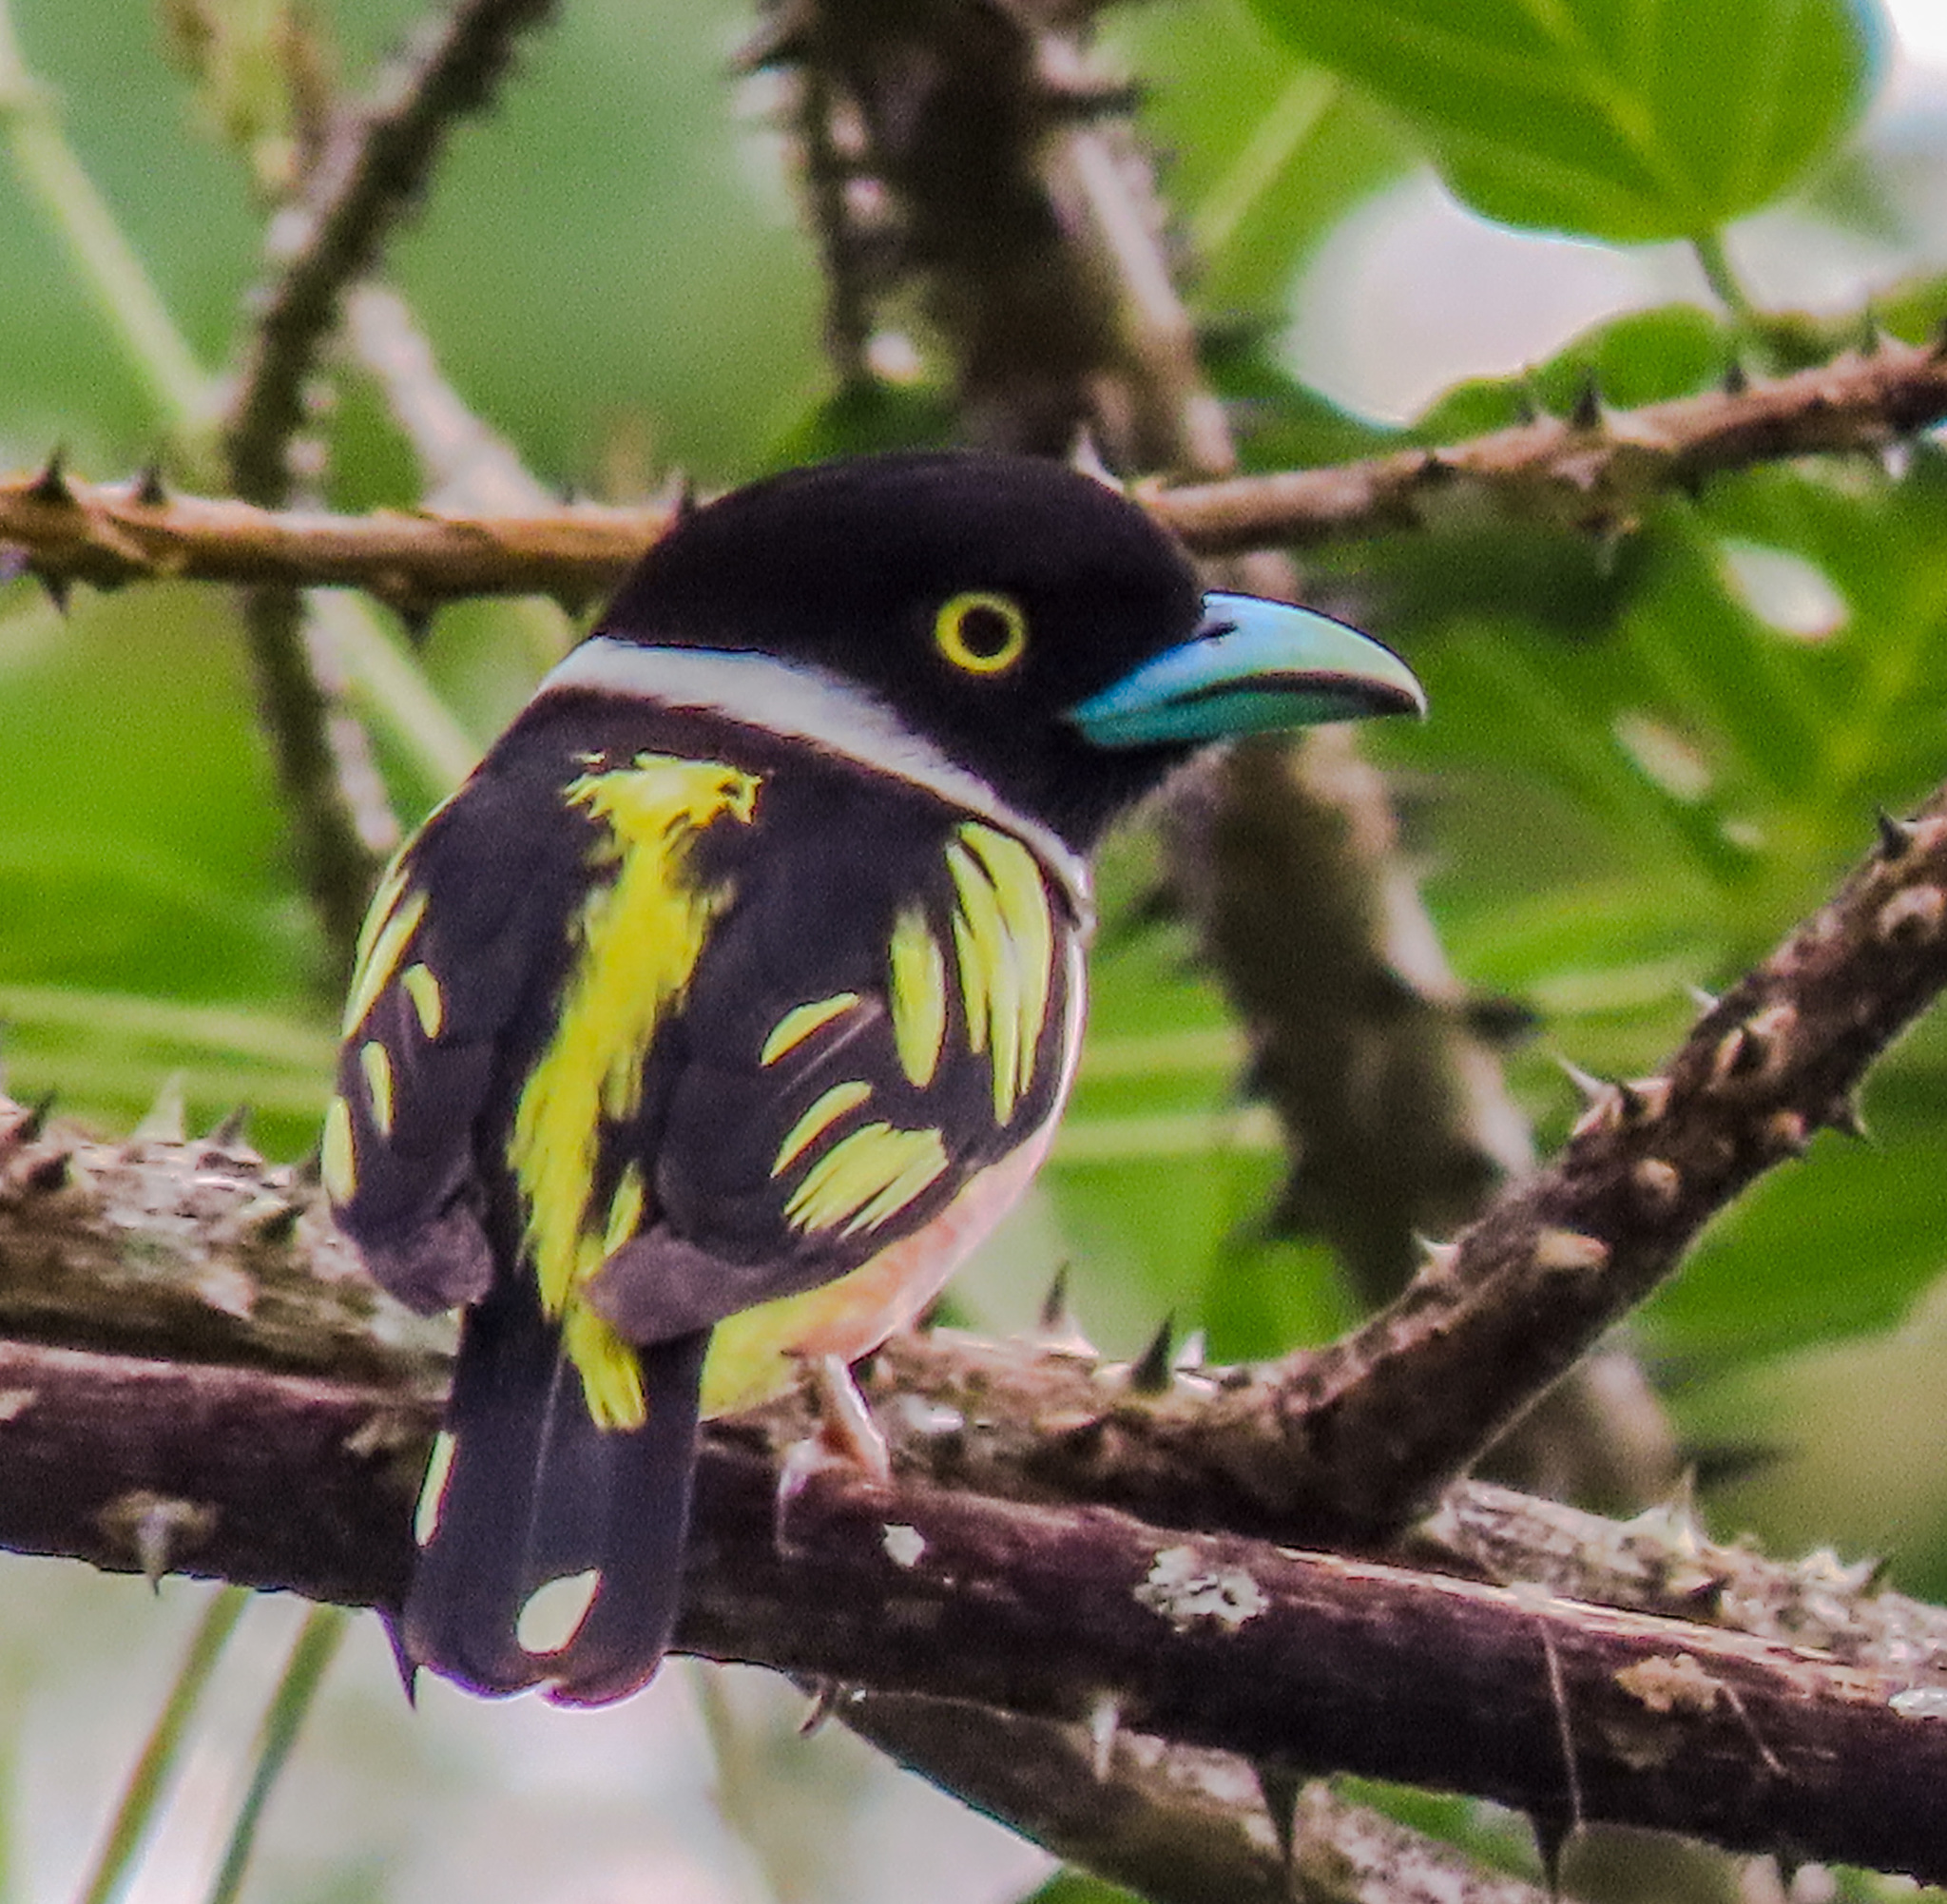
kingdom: Animalia
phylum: Chordata
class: Aves
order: Passeriformes
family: Eurylaimidae
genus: Eurylaimus
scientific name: Eurylaimus ochromalus
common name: Black-and-yellow broadbill
